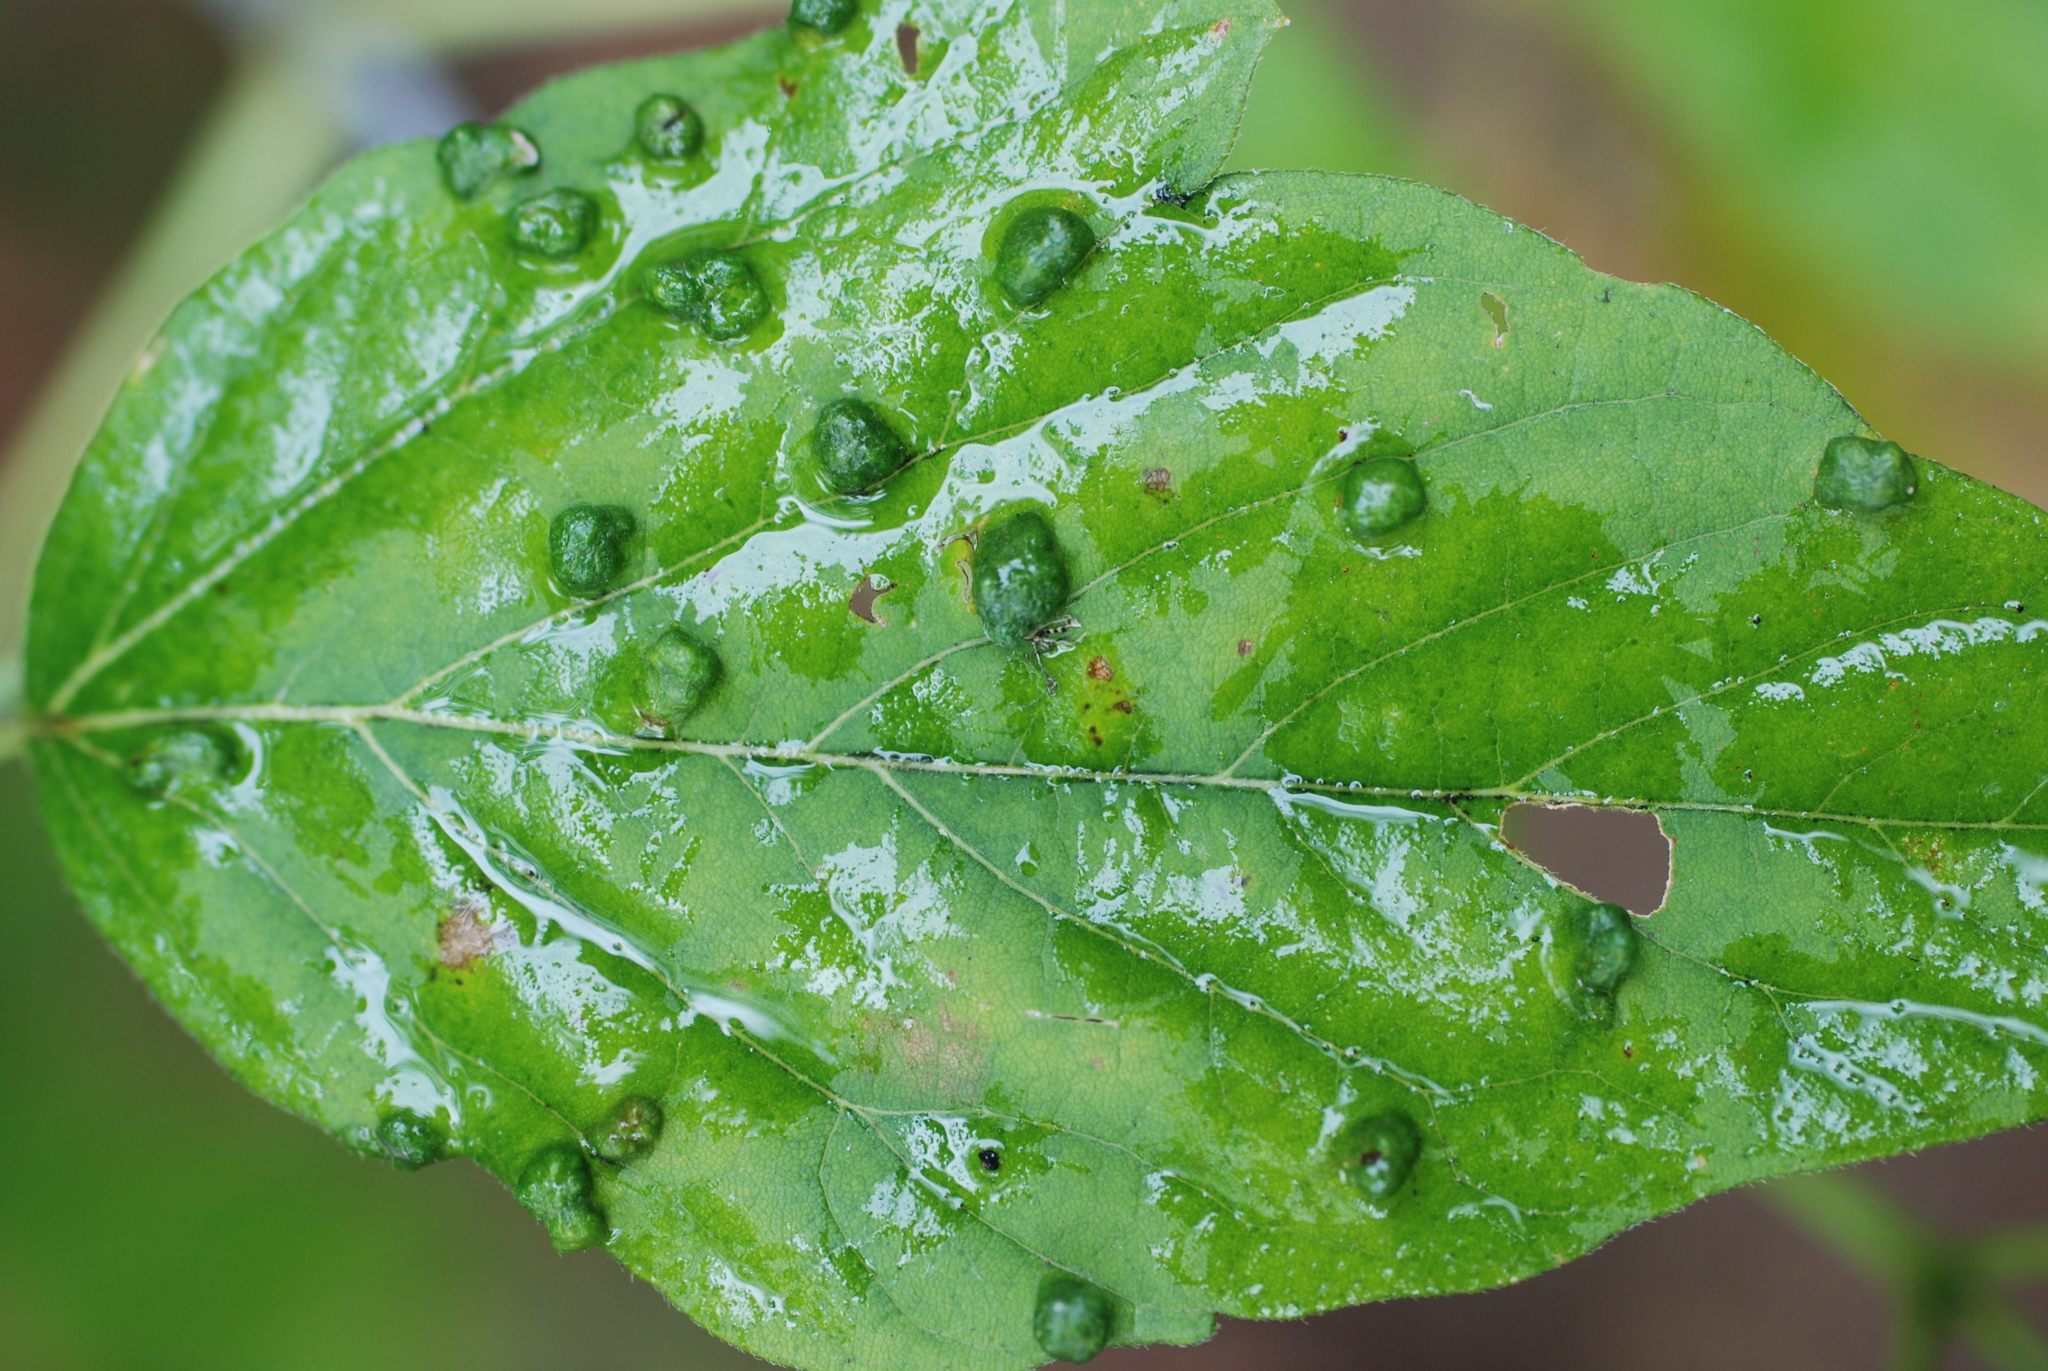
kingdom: Animalia
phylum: Arthropoda
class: Arachnida
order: Trombidiformes
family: Eriophyidae
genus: Aceria
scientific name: Aceria
